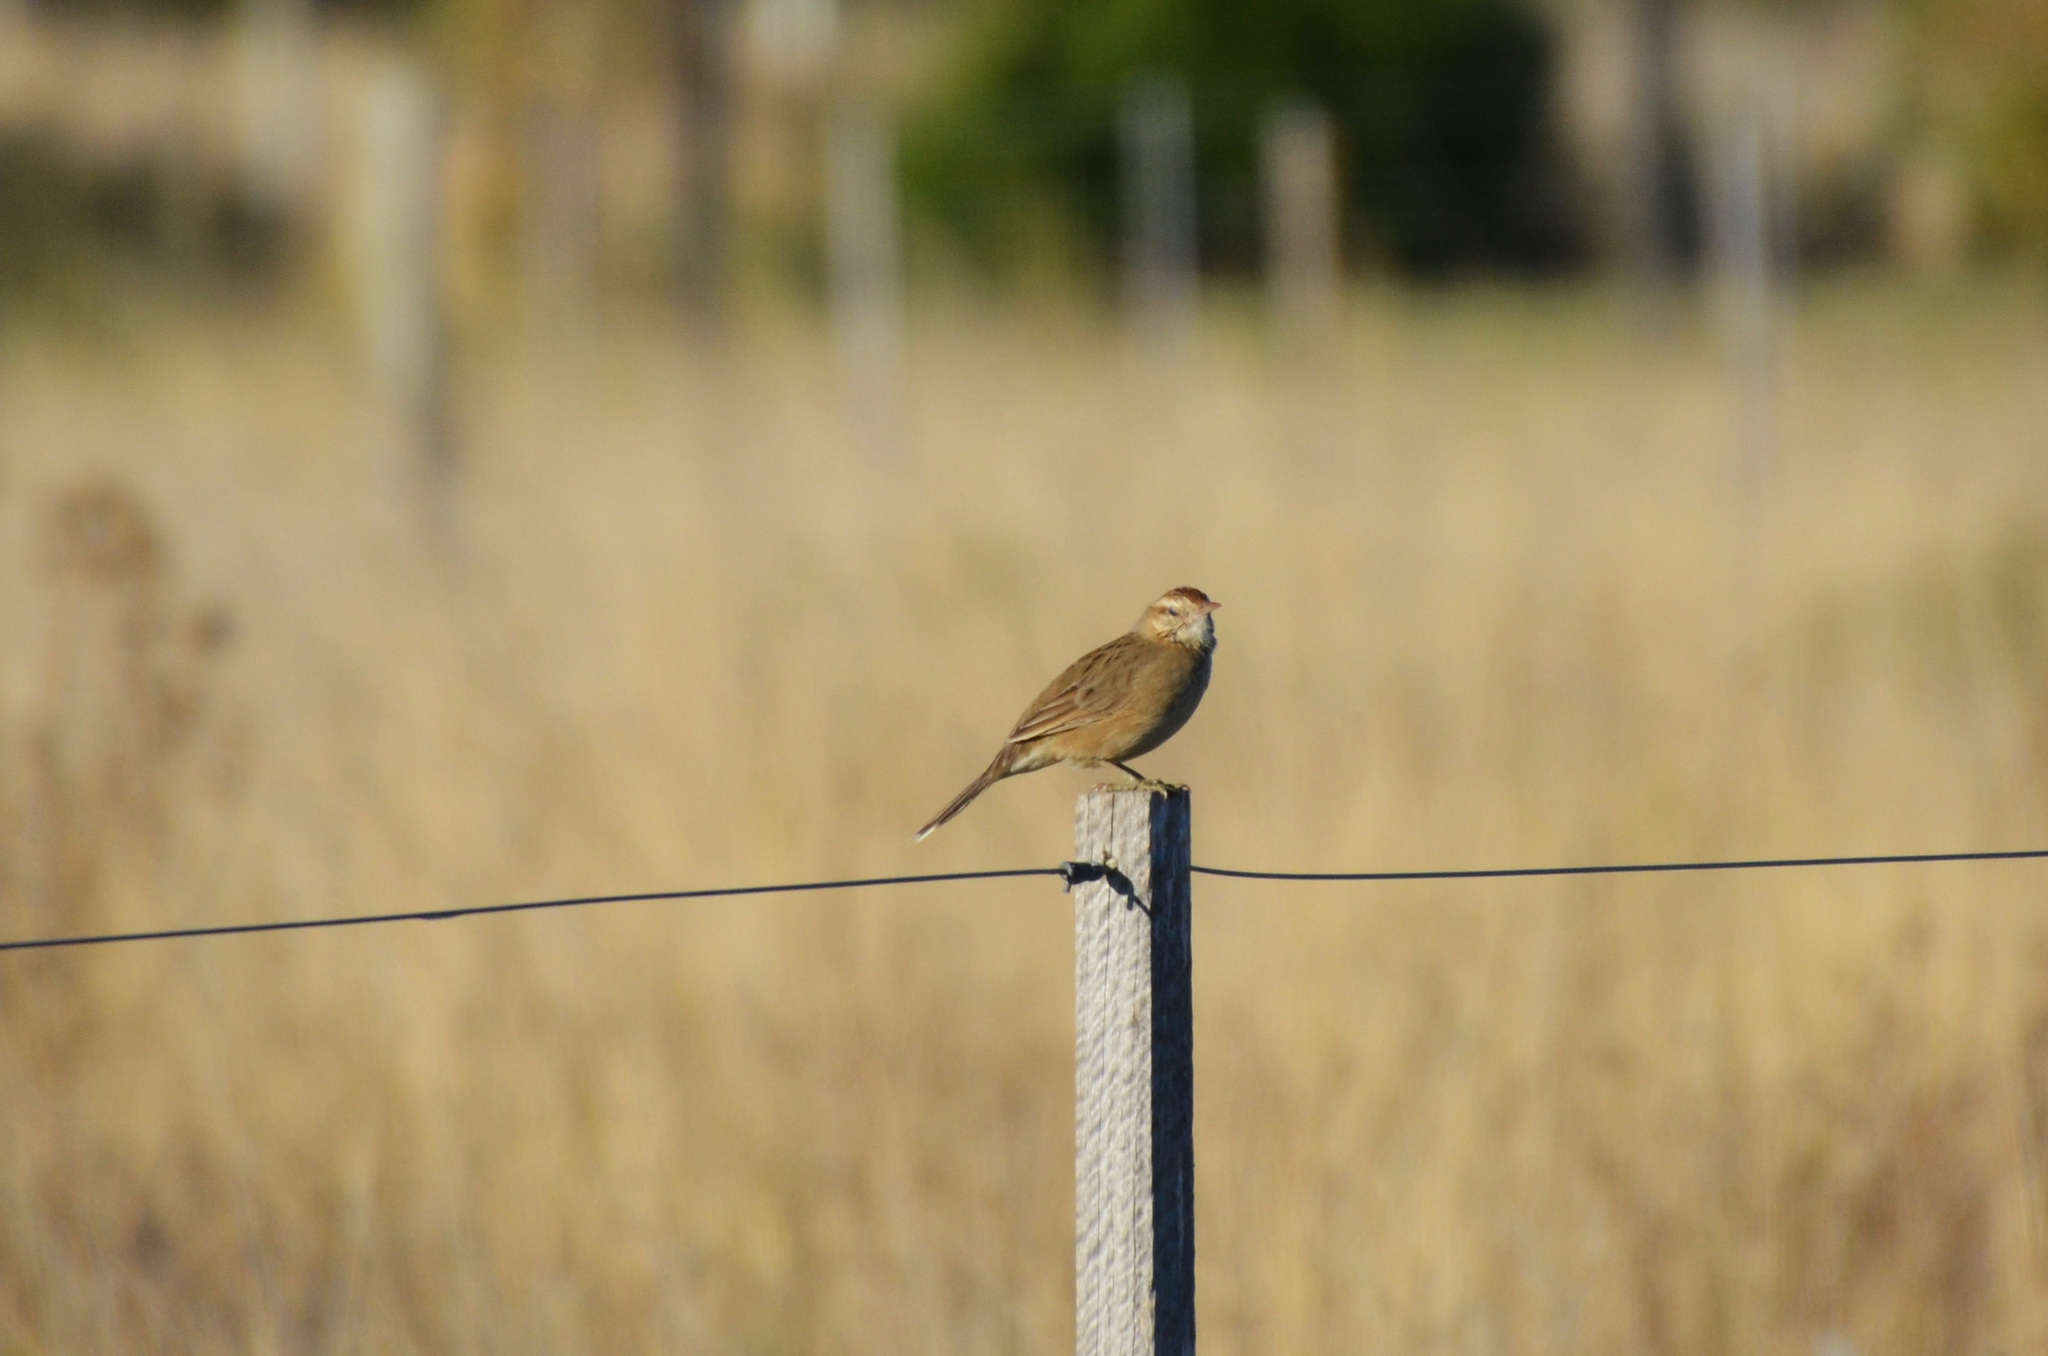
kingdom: Animalia
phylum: Chordata
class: Aves
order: Passeriformes
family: Furnariidae
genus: Anumbius
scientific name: Anumbius annumbi
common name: Firewood-gatherer
